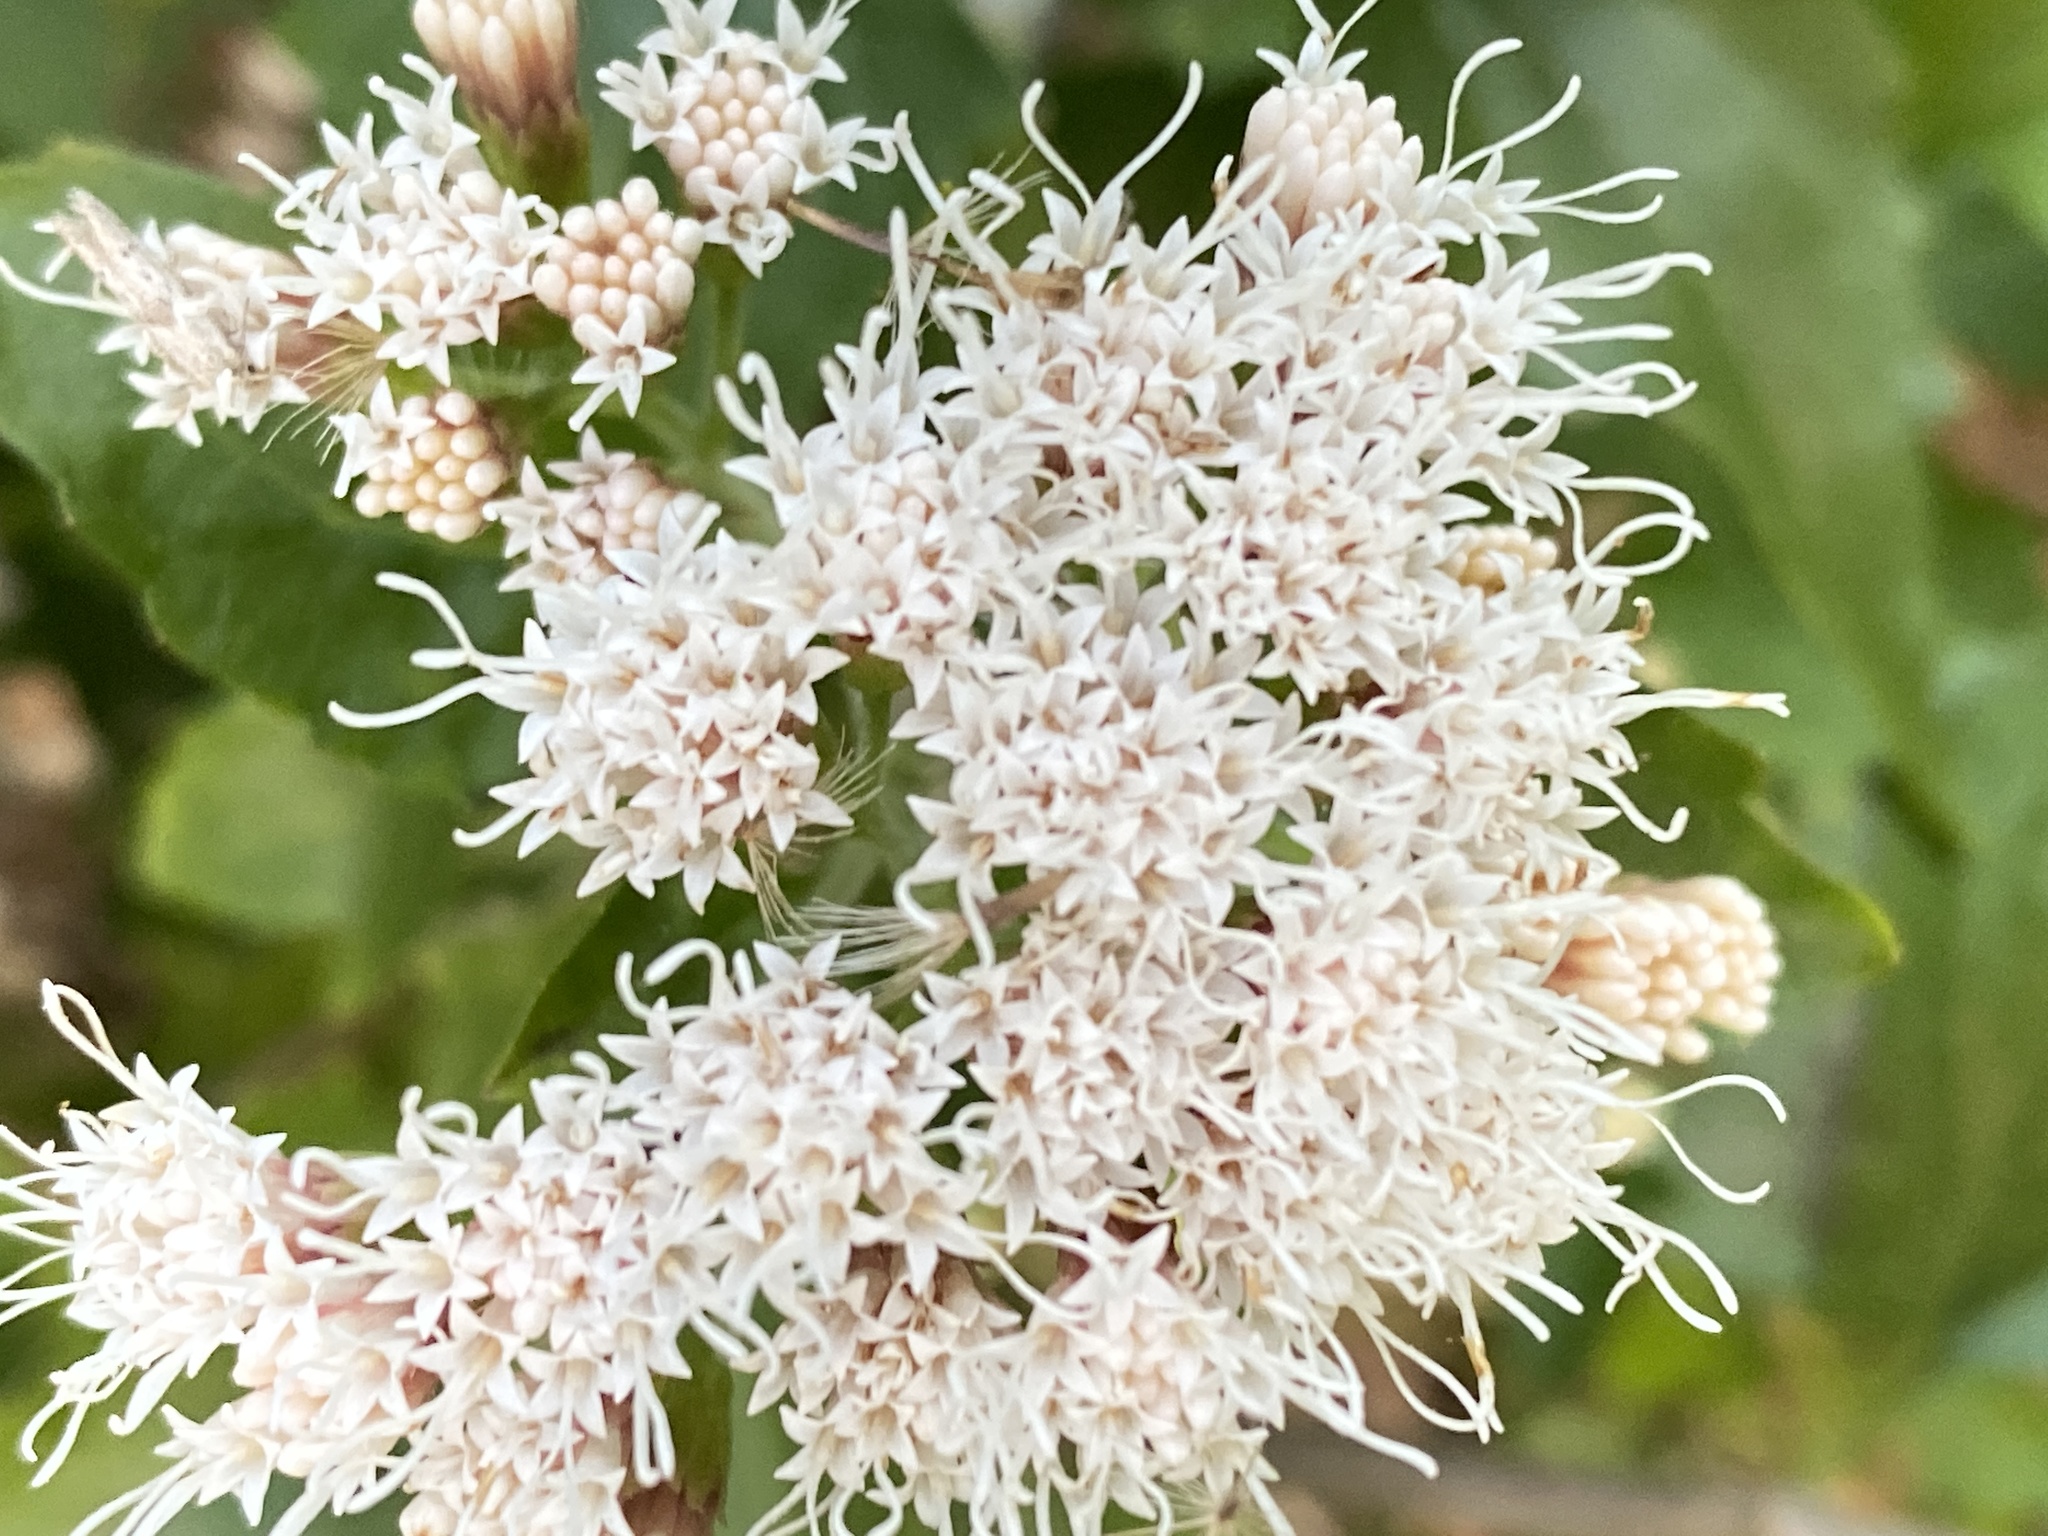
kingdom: Plantae
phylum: Tracheophyta
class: Magnoliopsida
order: Asterales
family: Asteraceae
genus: Ageratina
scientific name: Ageratina havanensis
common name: Havana snakeroot
